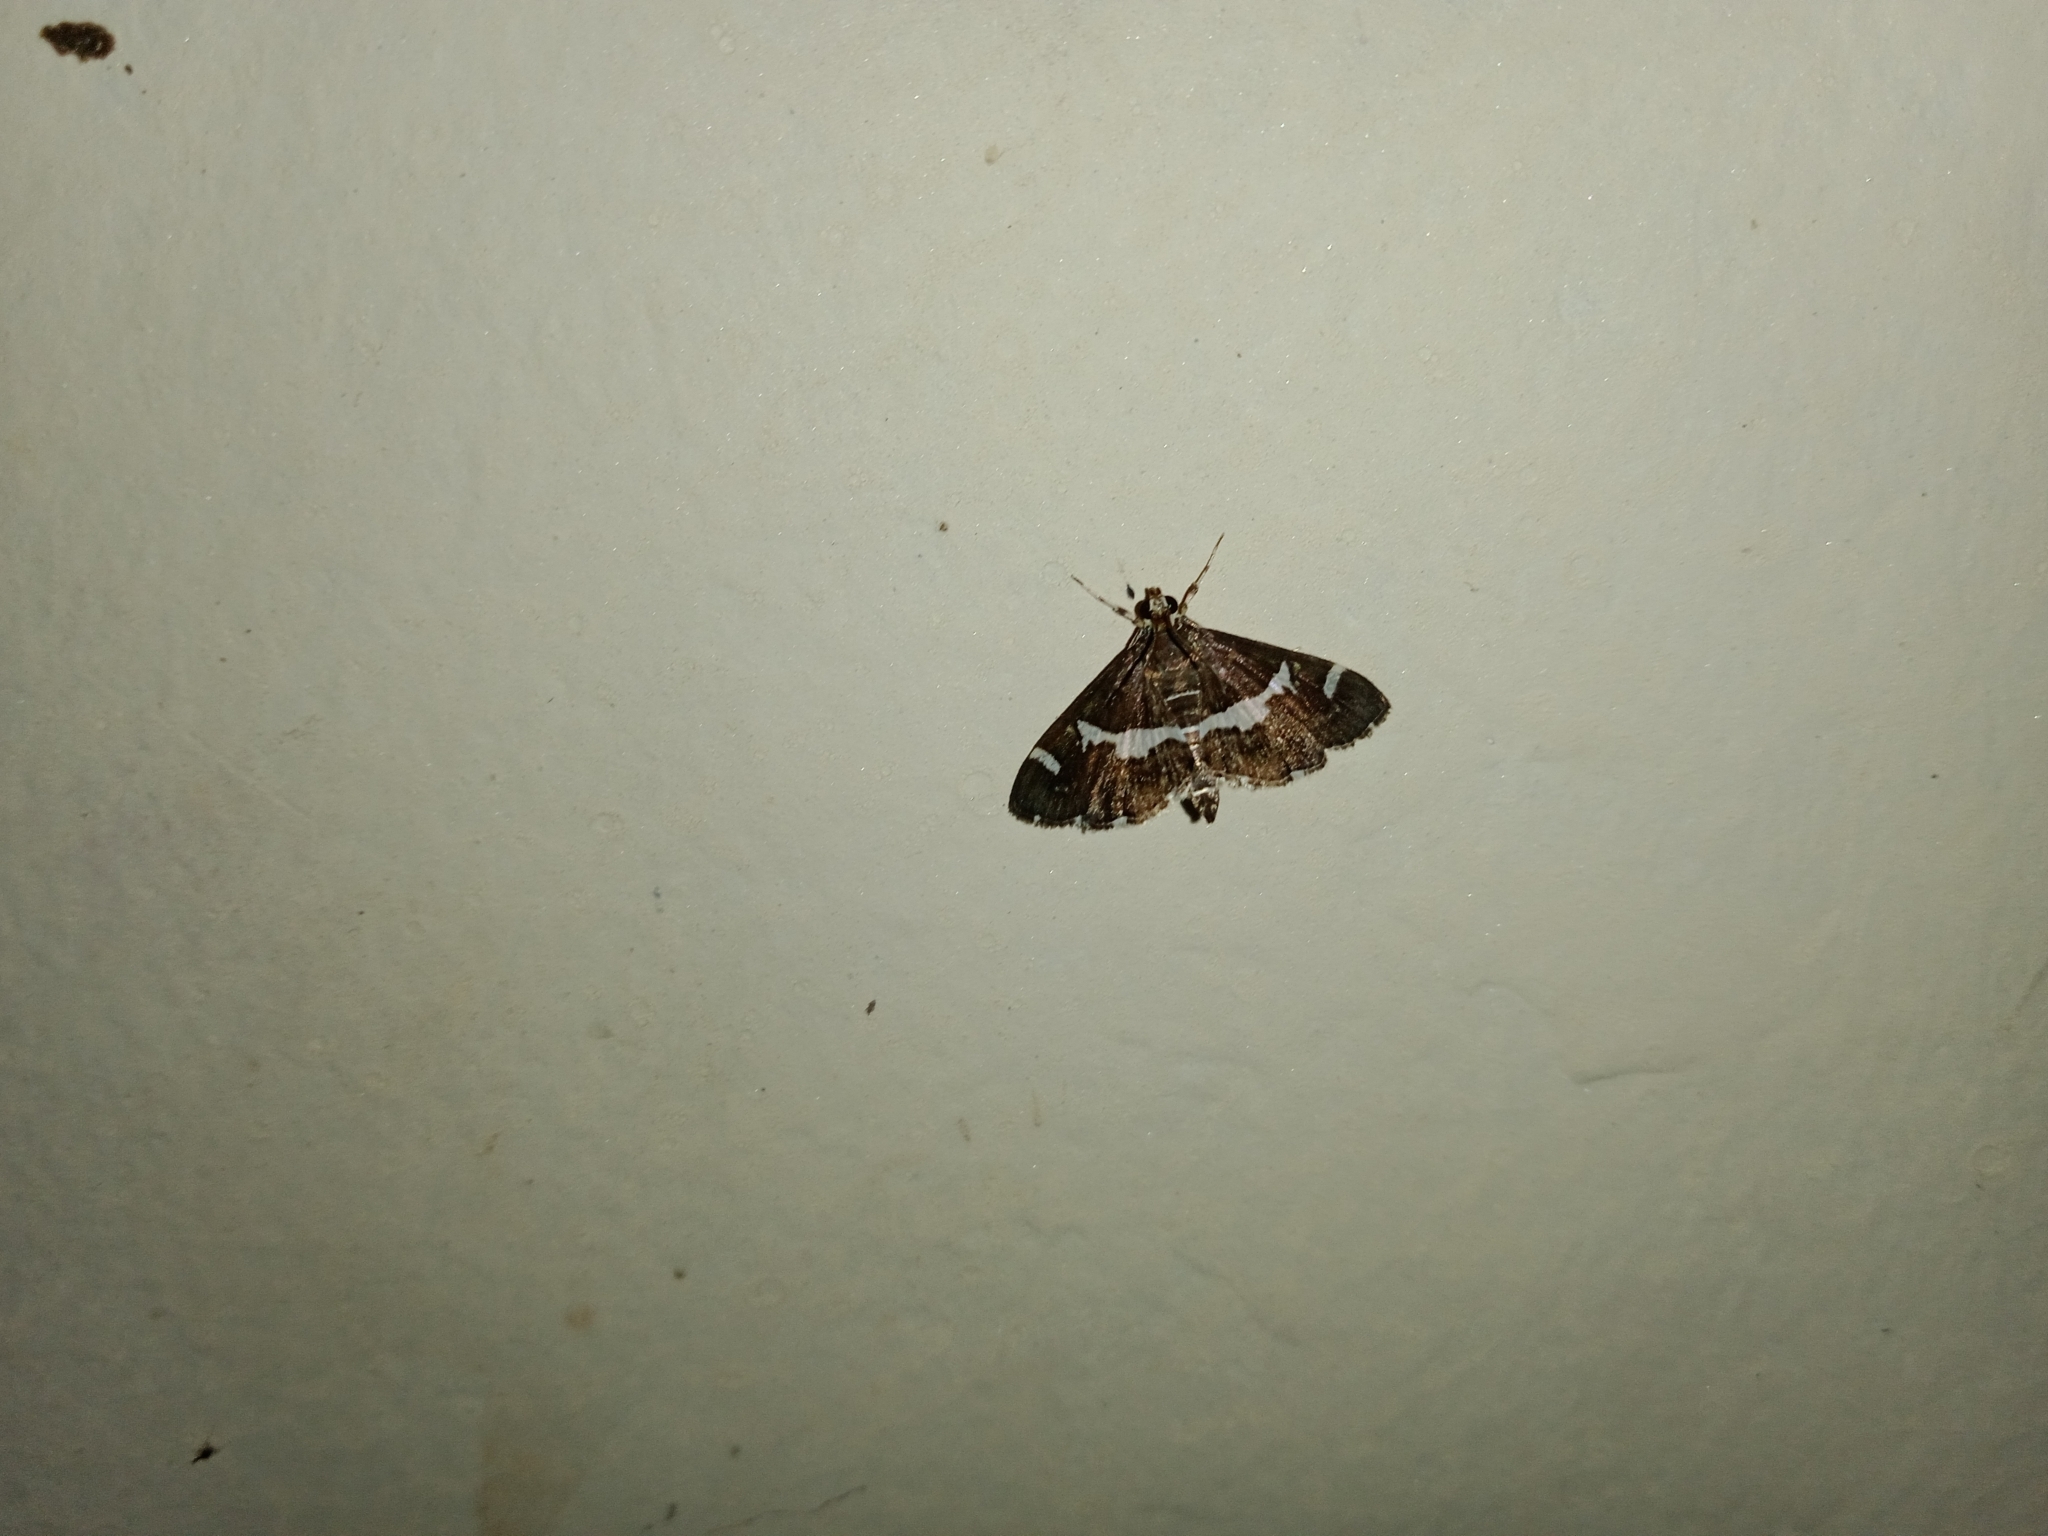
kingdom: Animalia
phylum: Arthropoda
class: Insecta
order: Lepidoptera
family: Crambidae
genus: Spoladea
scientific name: Spoladea recurvalis
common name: Beet webworm moth
